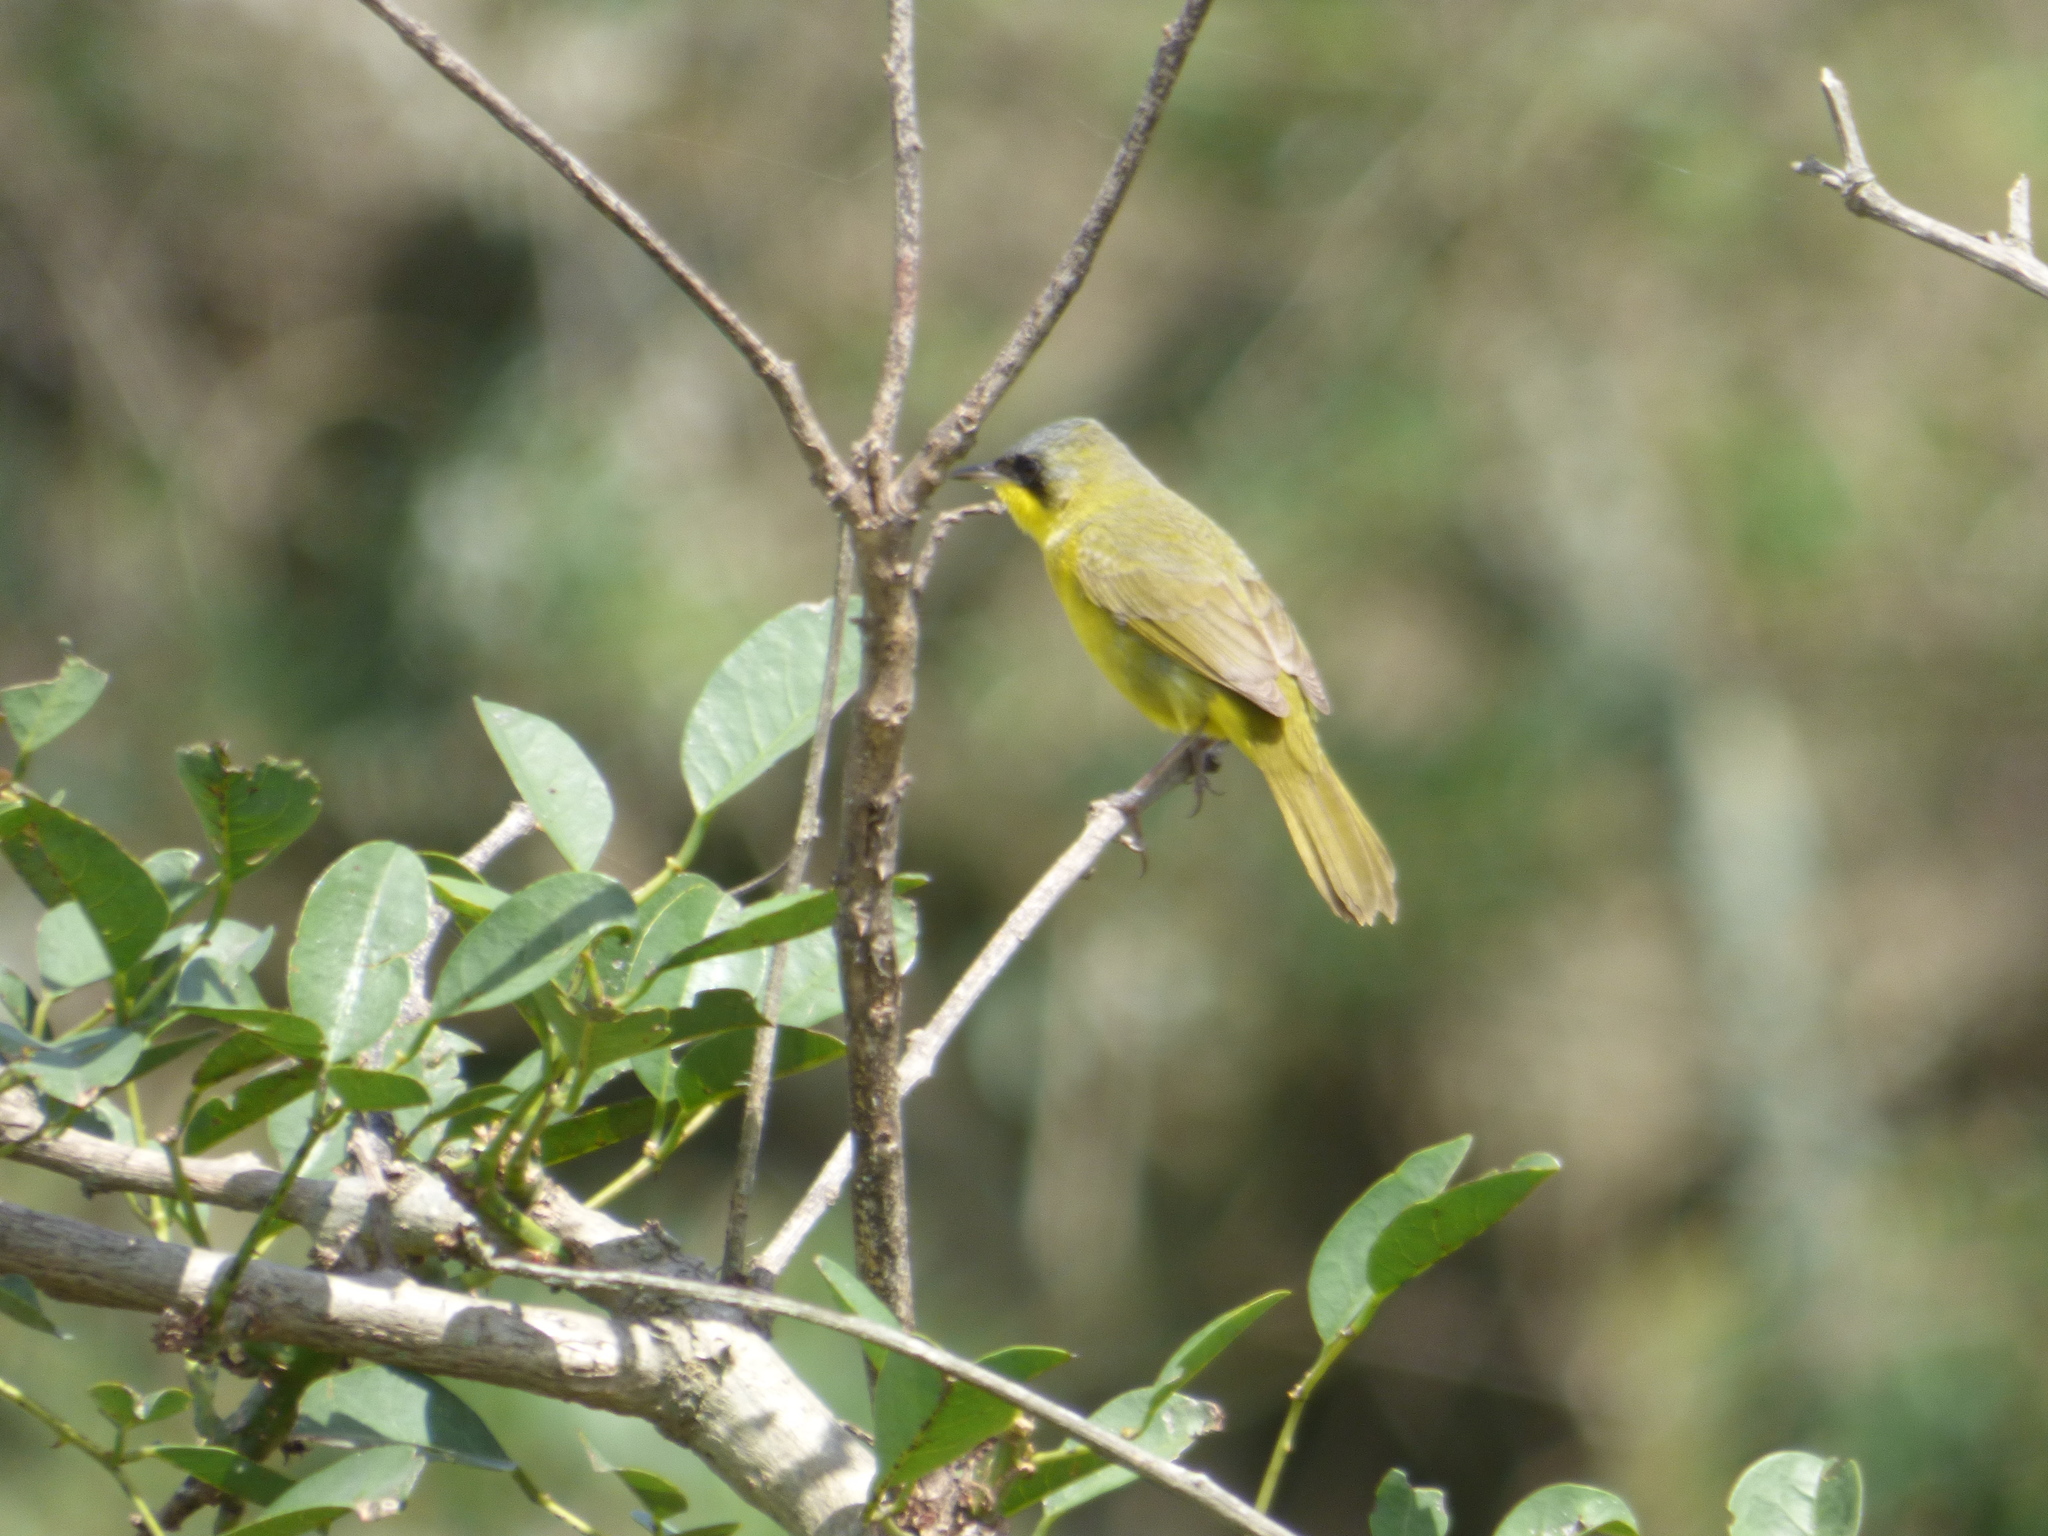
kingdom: Animalia
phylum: Chordata
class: Aves
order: Passeriformes
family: Parulidae
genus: Geothlypis
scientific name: Geothlypis velata
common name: Southern yellowthroat
